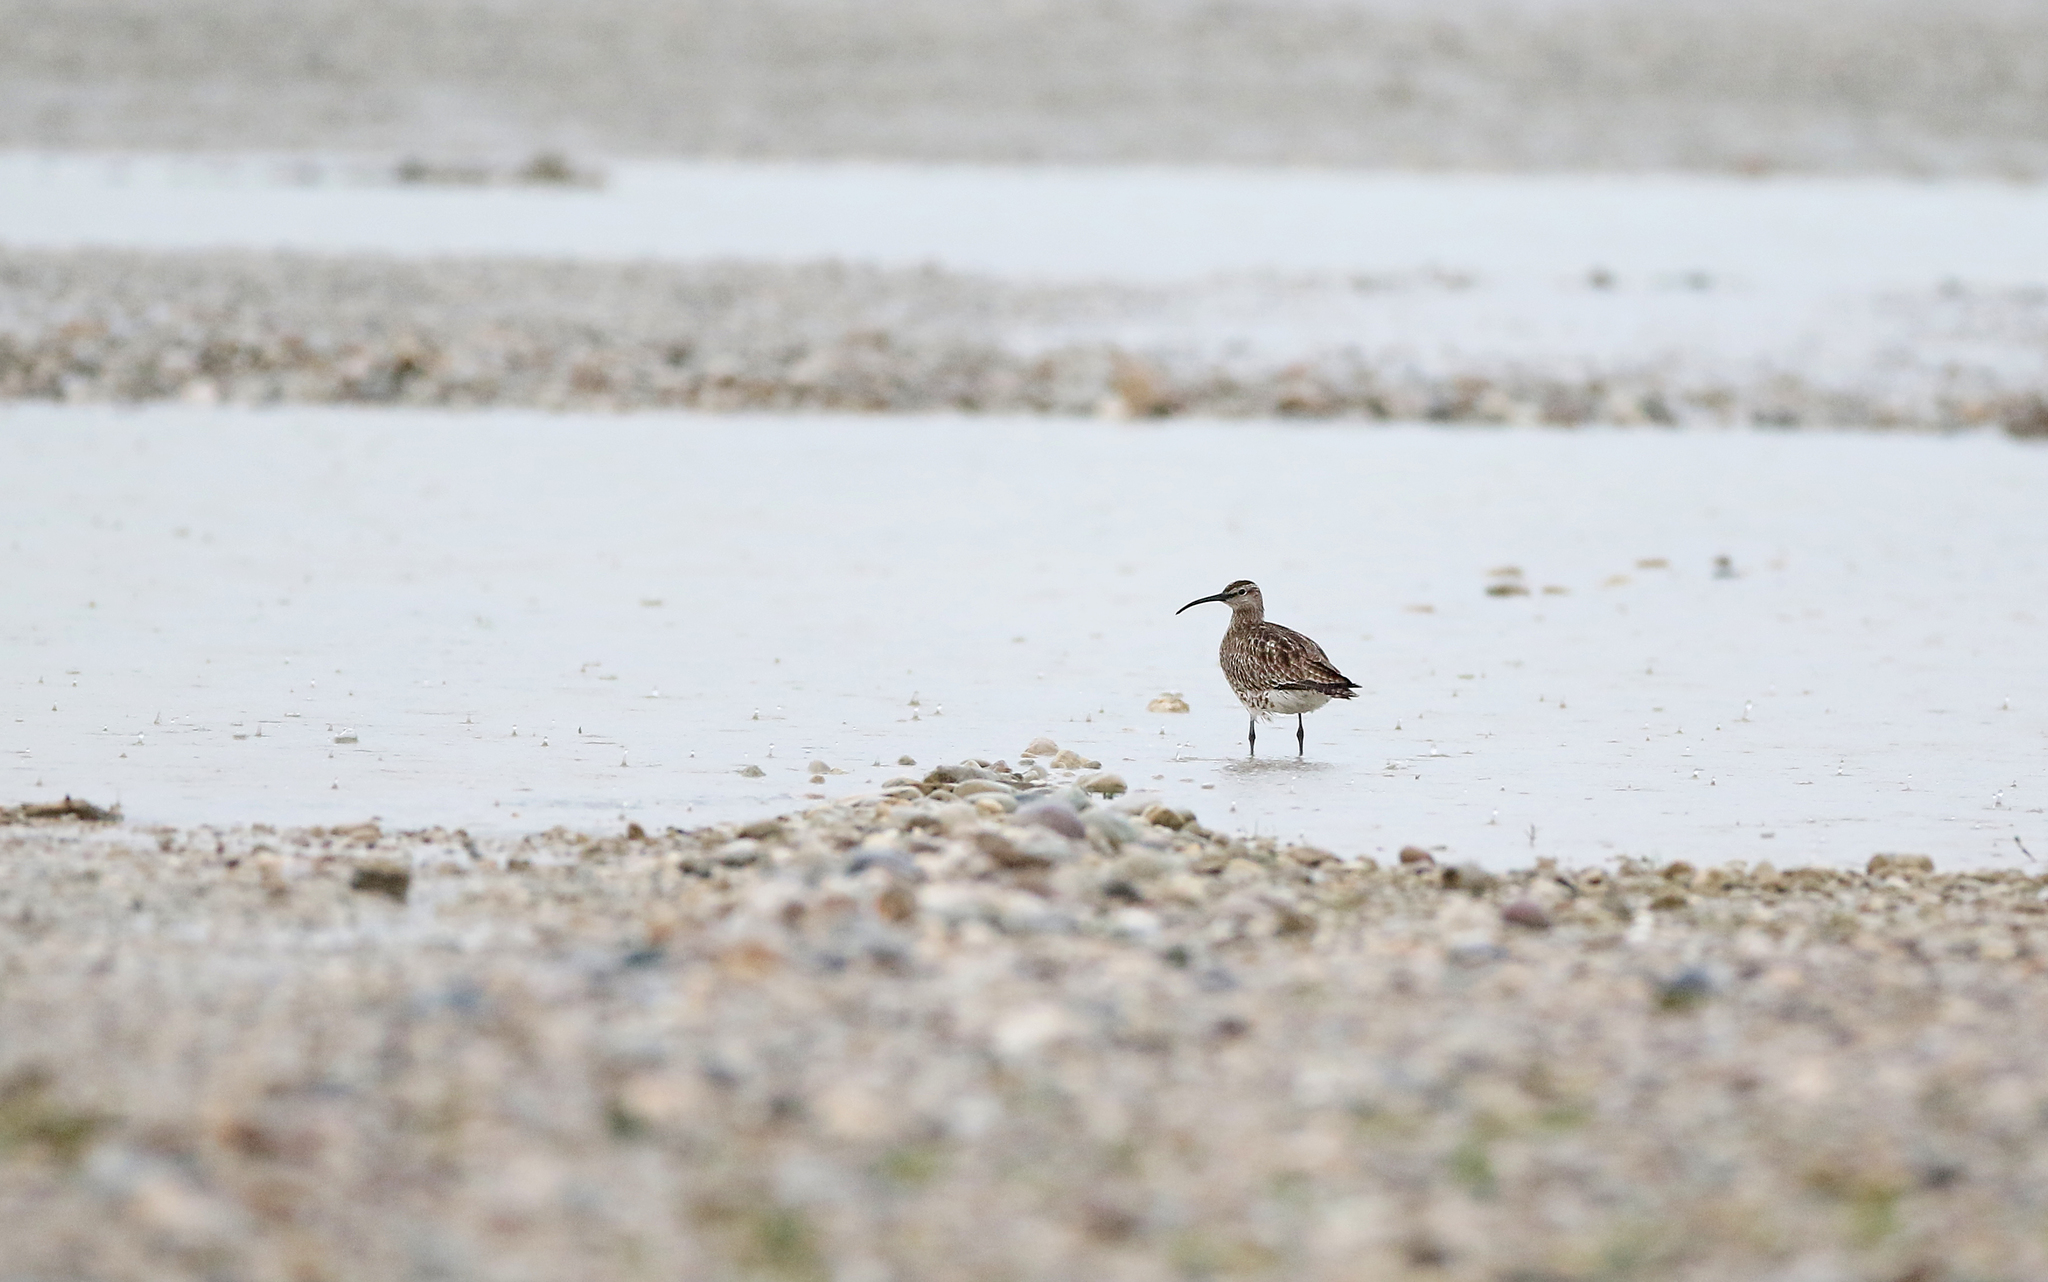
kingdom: Animalia
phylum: Chordata
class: Aves
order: Charadriiformes
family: Scolopacidae
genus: Numenius
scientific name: Numenius phaeopus
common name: Whimbrel
